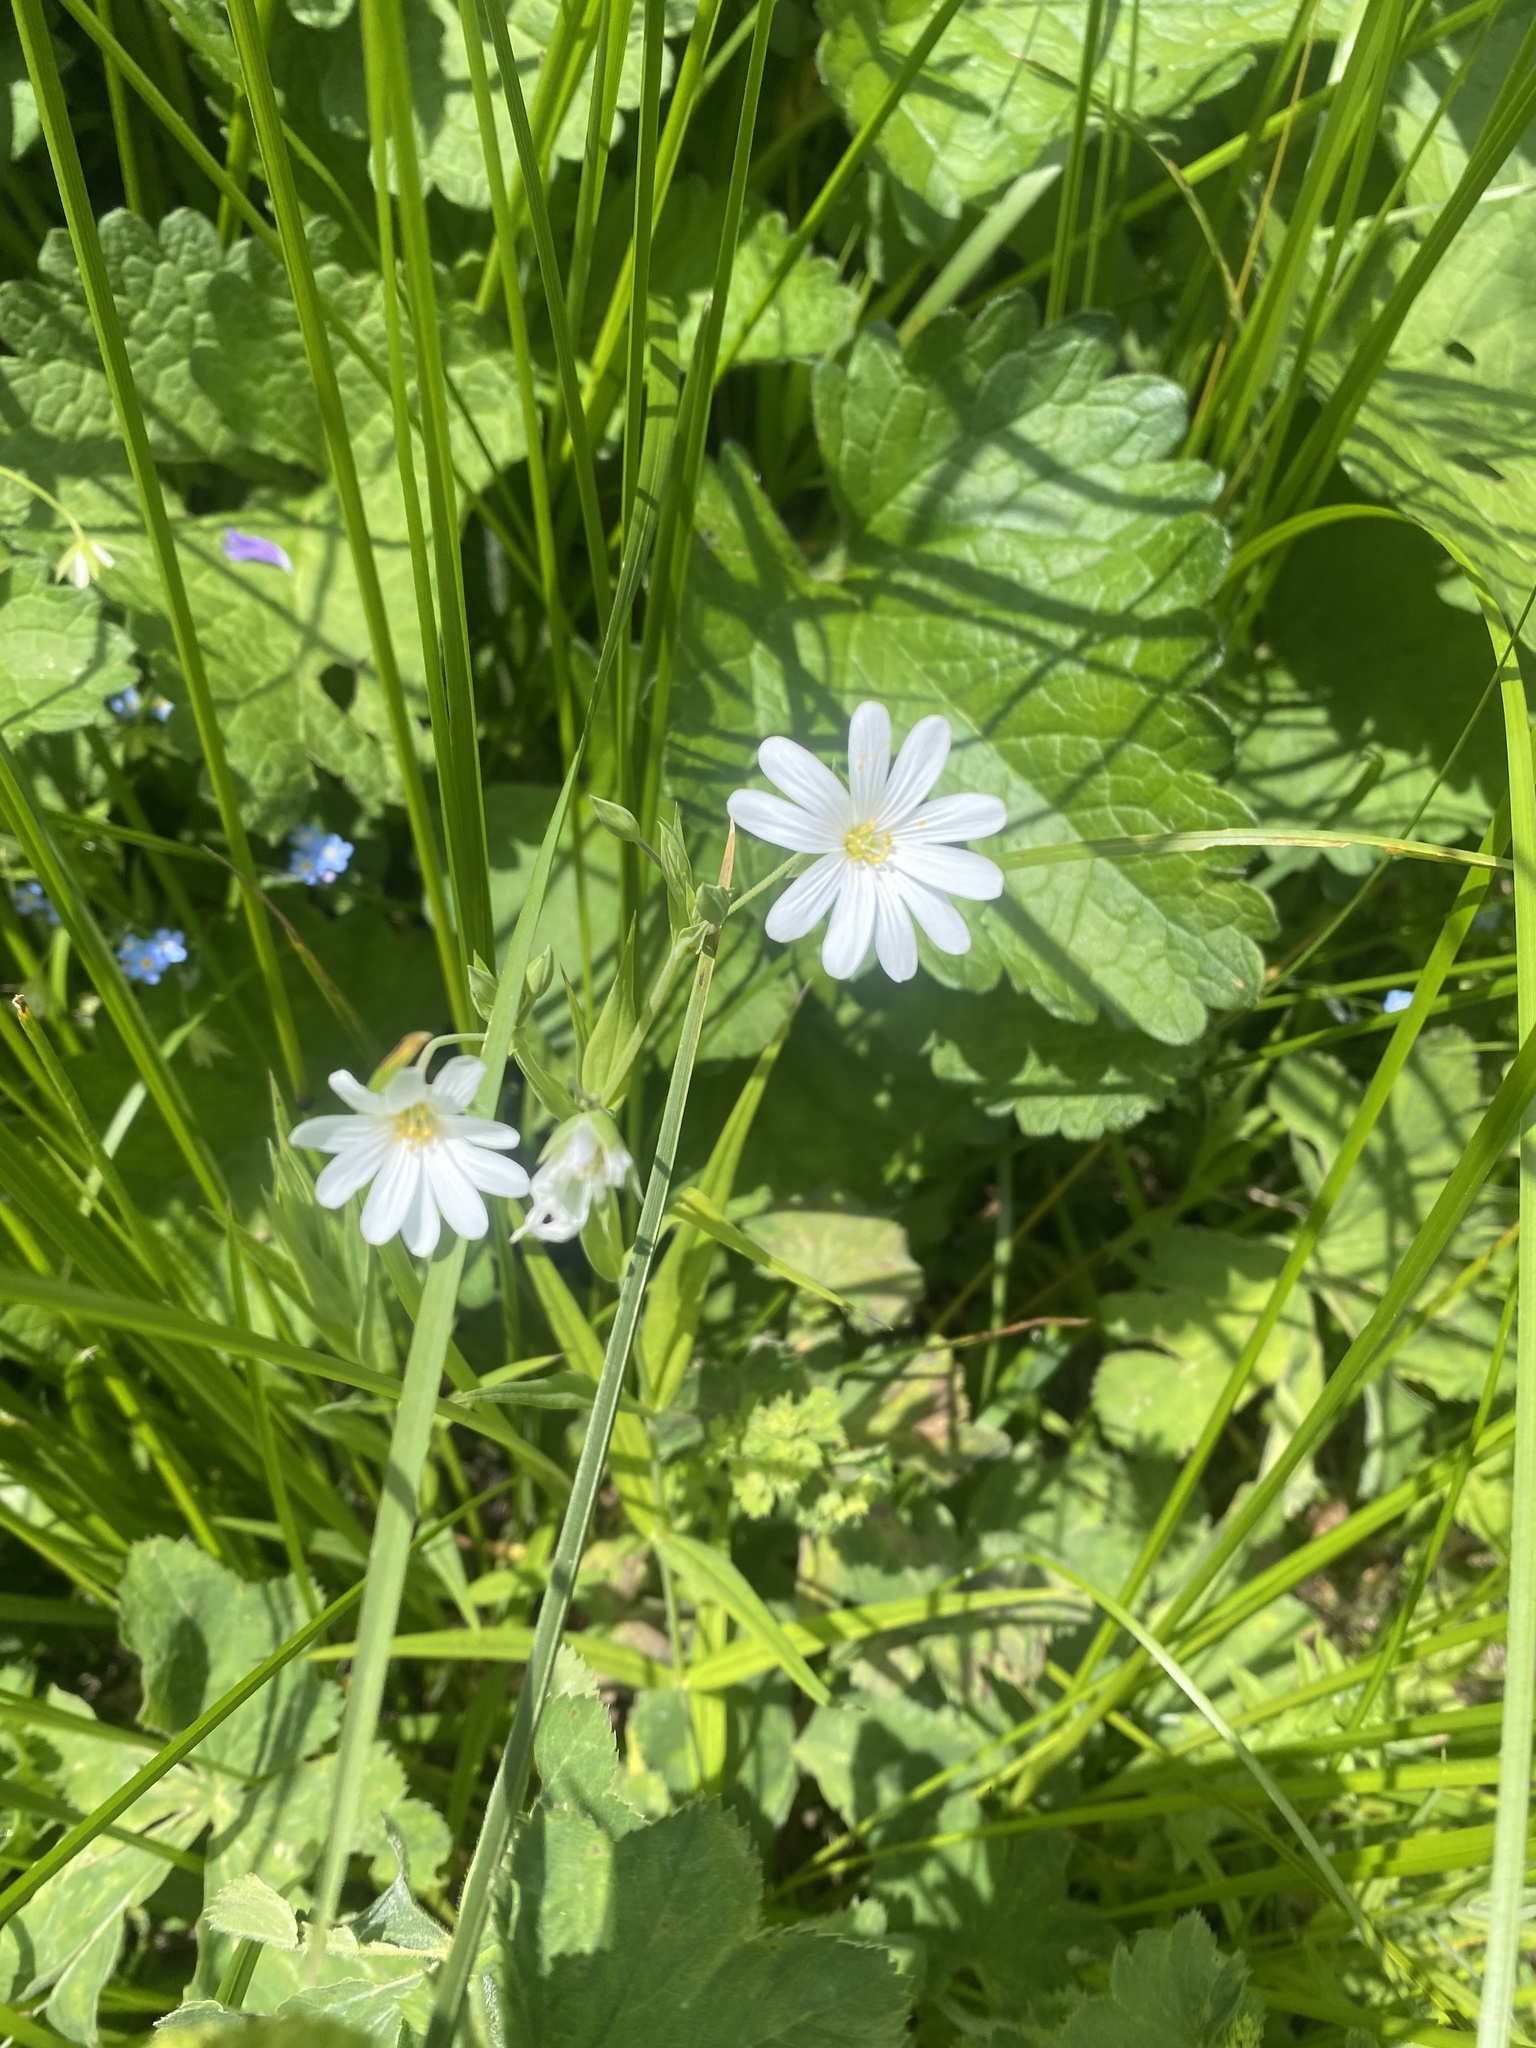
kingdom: Plantae
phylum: Tracheophyta
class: Magnoliopsida
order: Caryophyllales
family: Caryophyllaceae
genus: Rabelera
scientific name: Rabelera holostea
